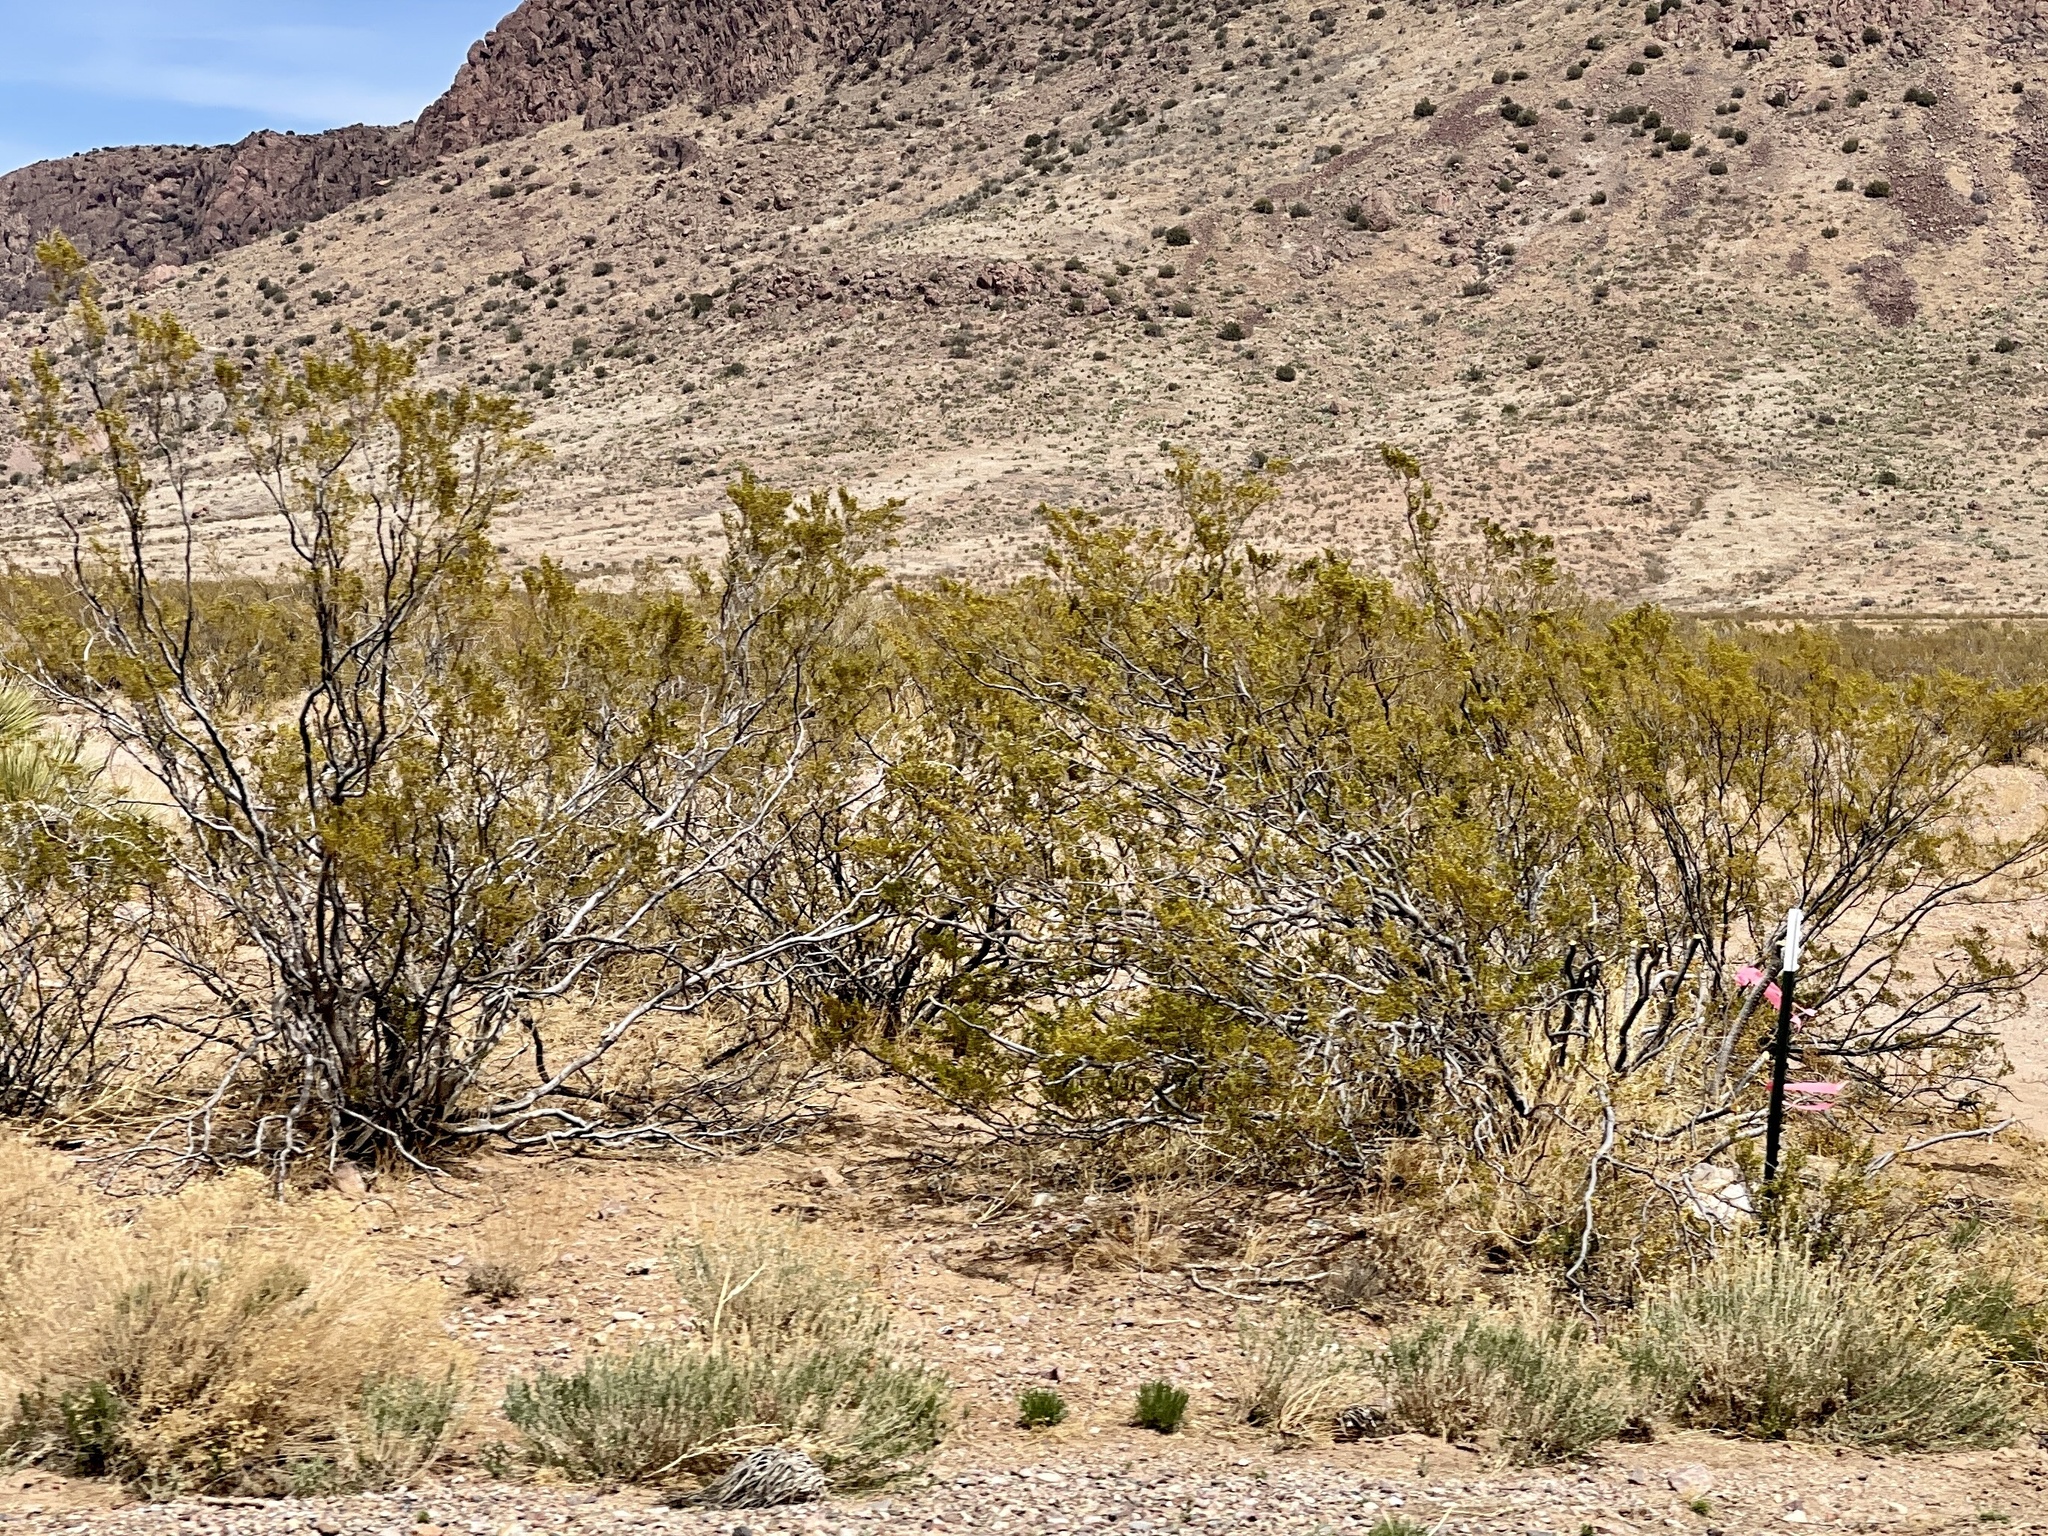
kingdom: Plantae
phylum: Tracheophyta
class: Magnoliopsida
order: Zygophyllales
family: Zygophyllaceae
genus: Larrea
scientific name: Larrea tridentata
